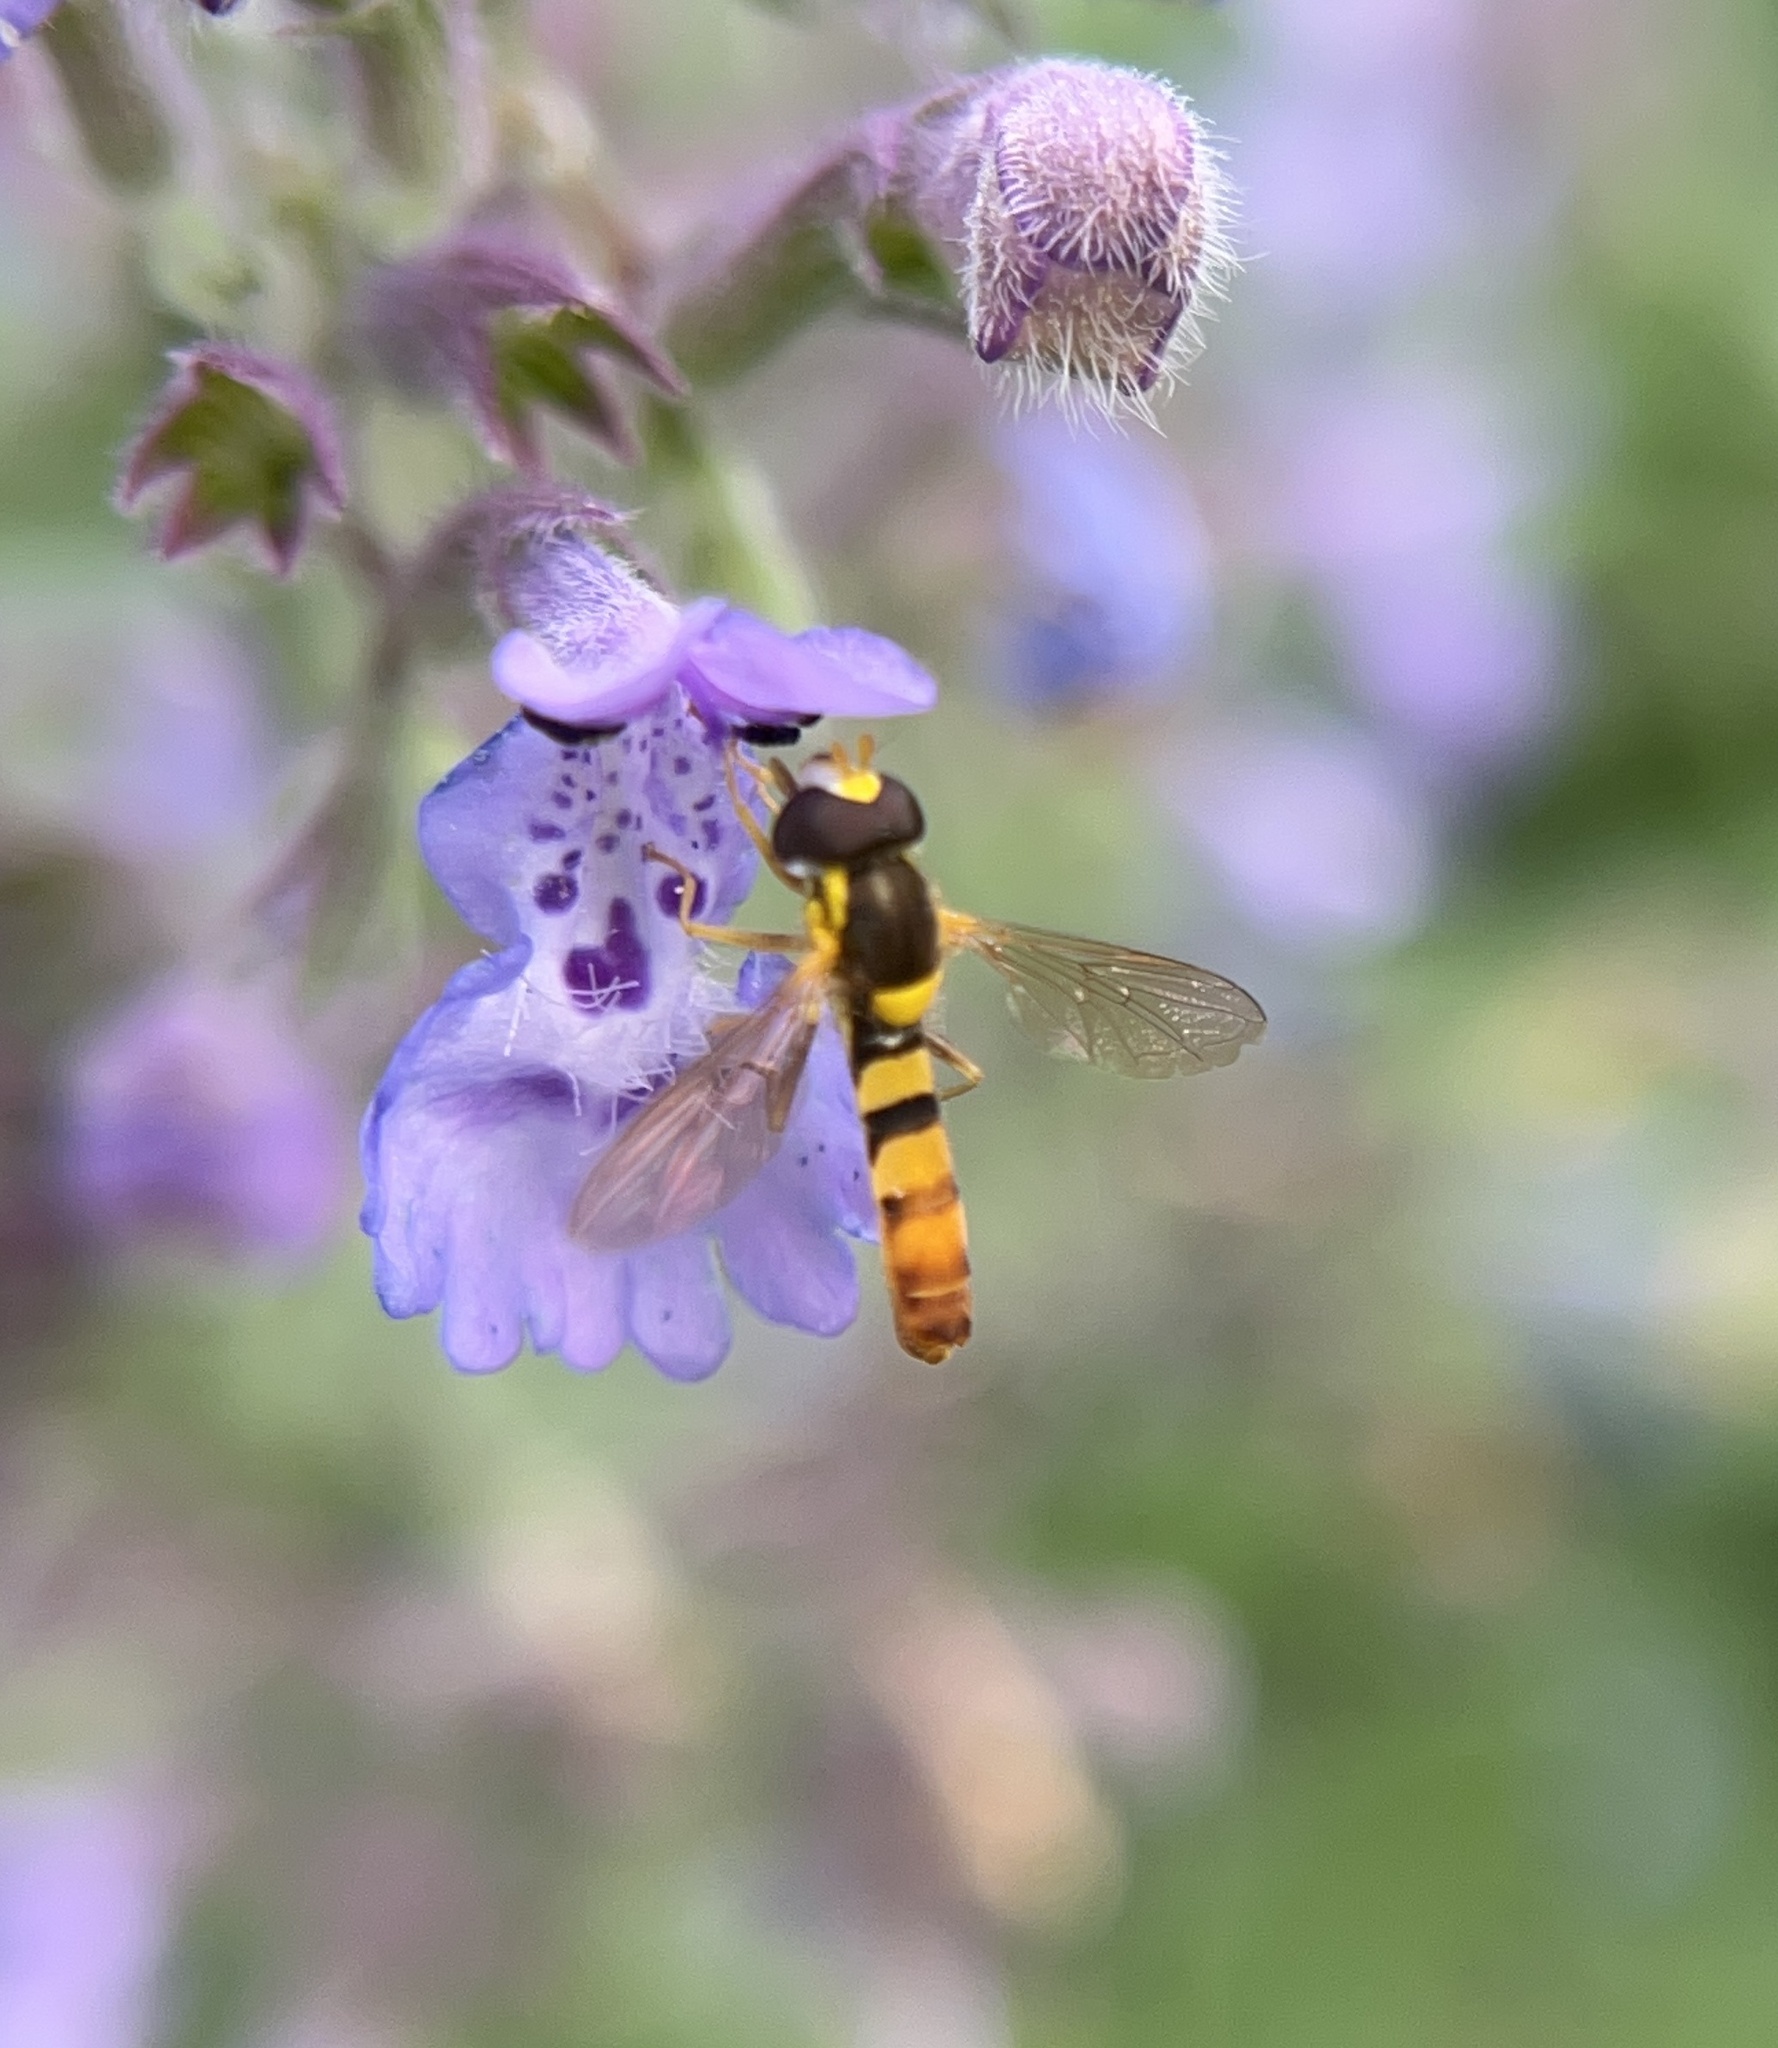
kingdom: Animalia
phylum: Arthropoda
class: Insecta
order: Diptera
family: Syrphidae
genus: Sphaerophoria
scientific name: Sphaerophoria contigua
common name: Tufted globetail
